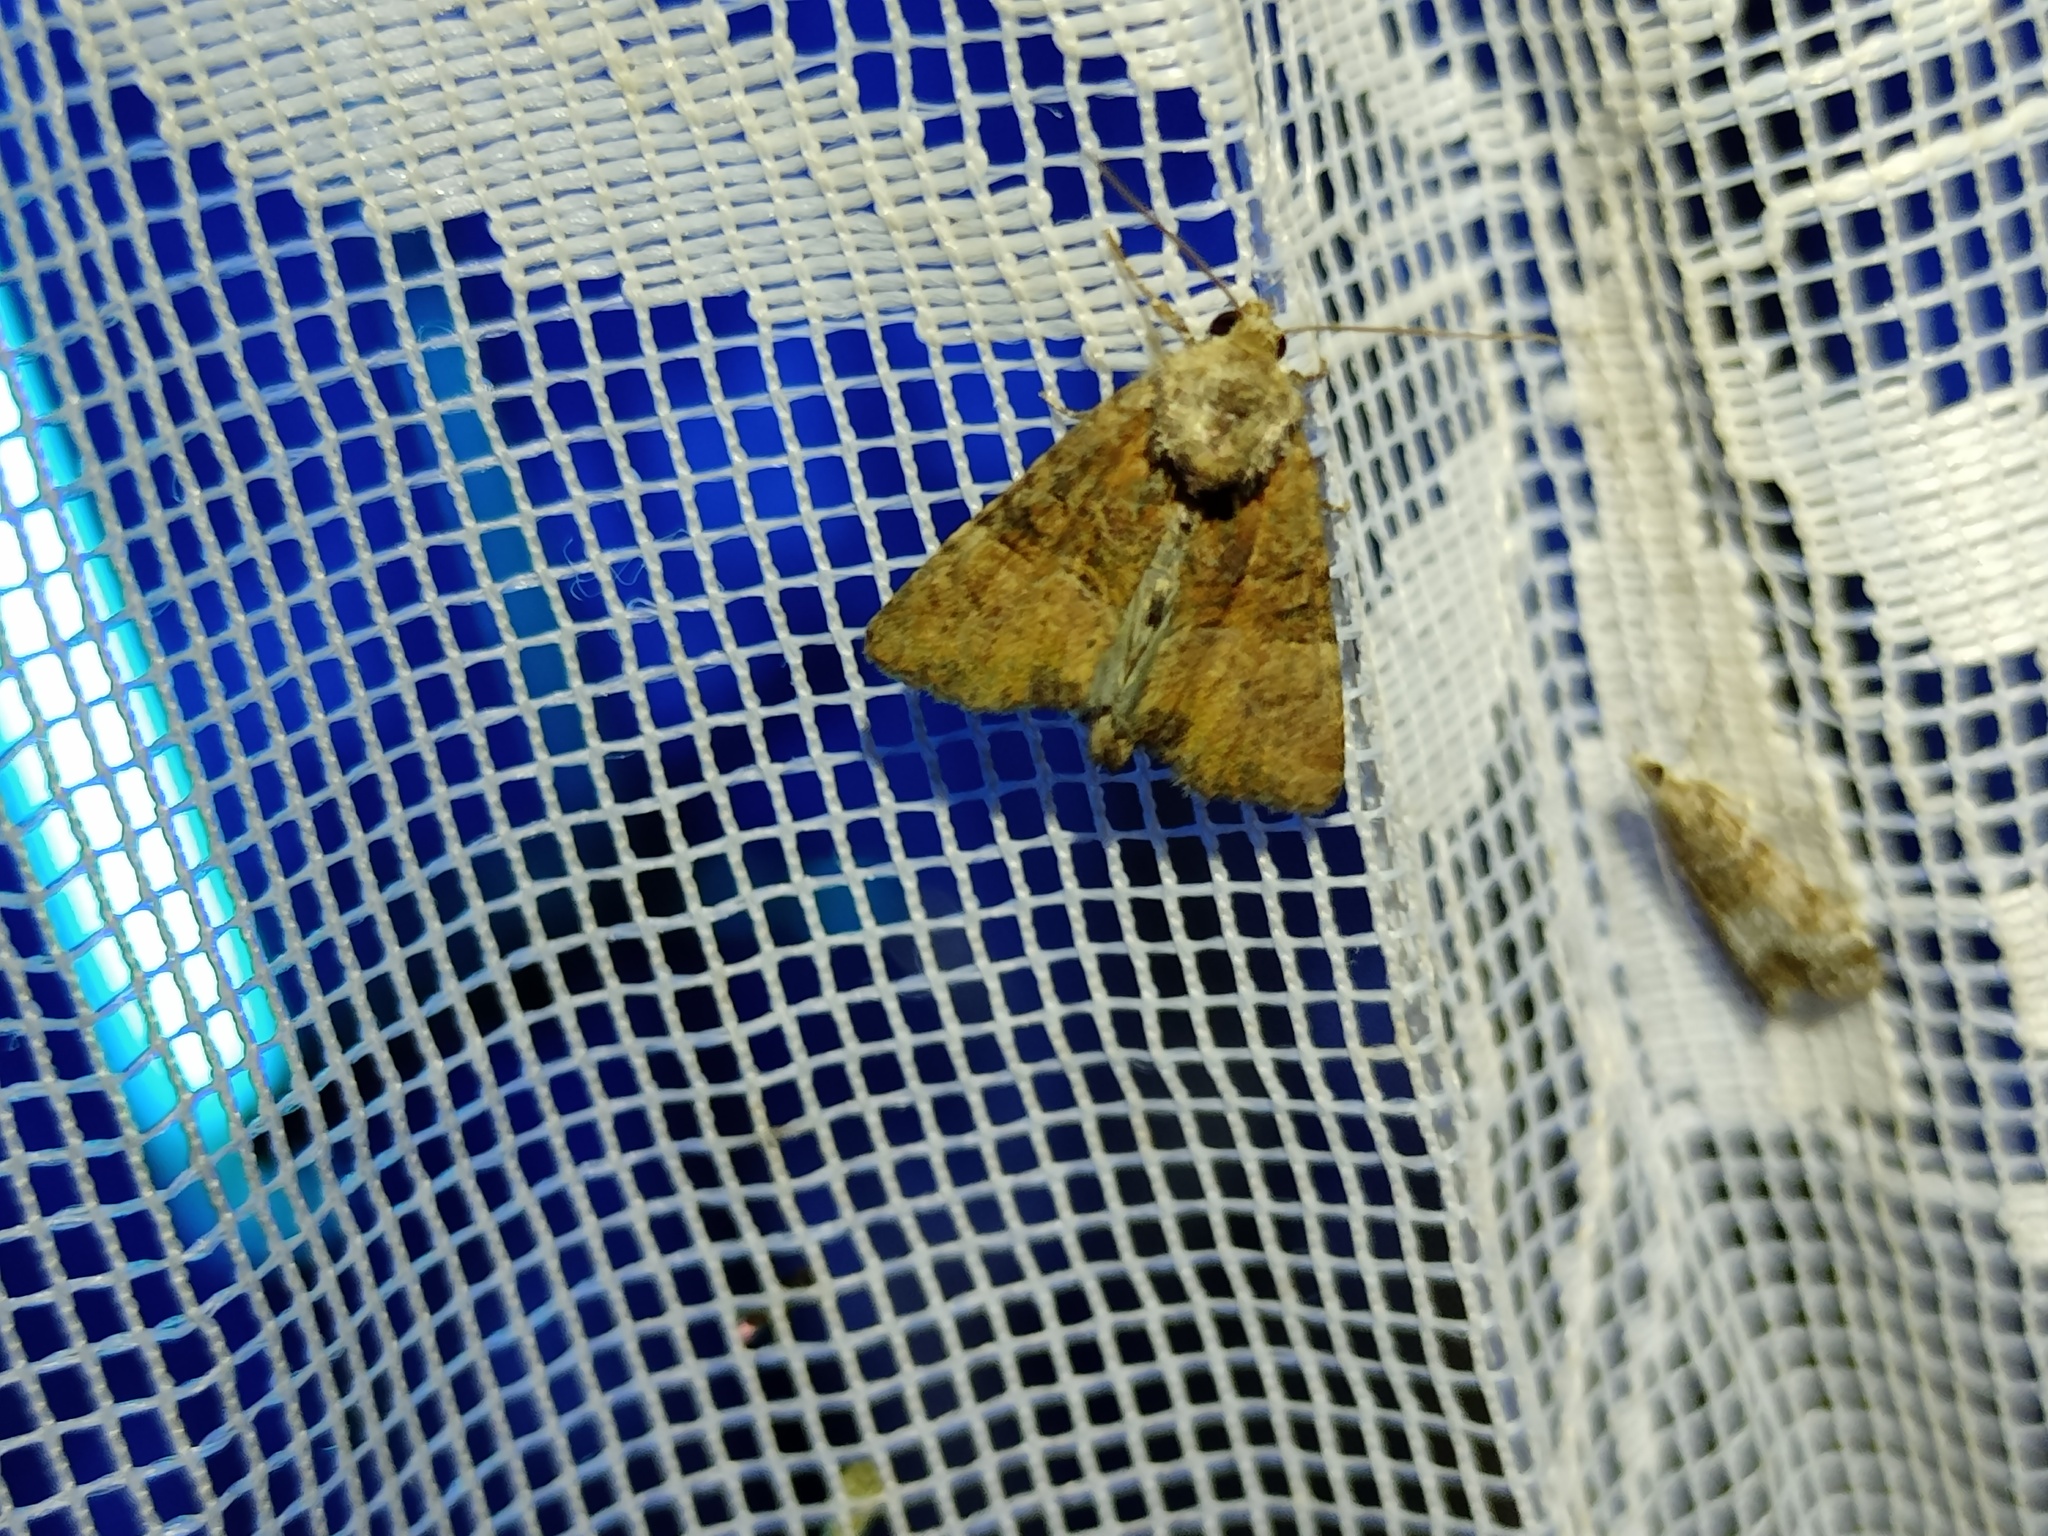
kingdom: Animalia
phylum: Arthropoda
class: Insecta
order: Lepidoptera
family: Noctuidae
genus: Mesoligia
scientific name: Mesoligia furuncula
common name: Cloaked minor
